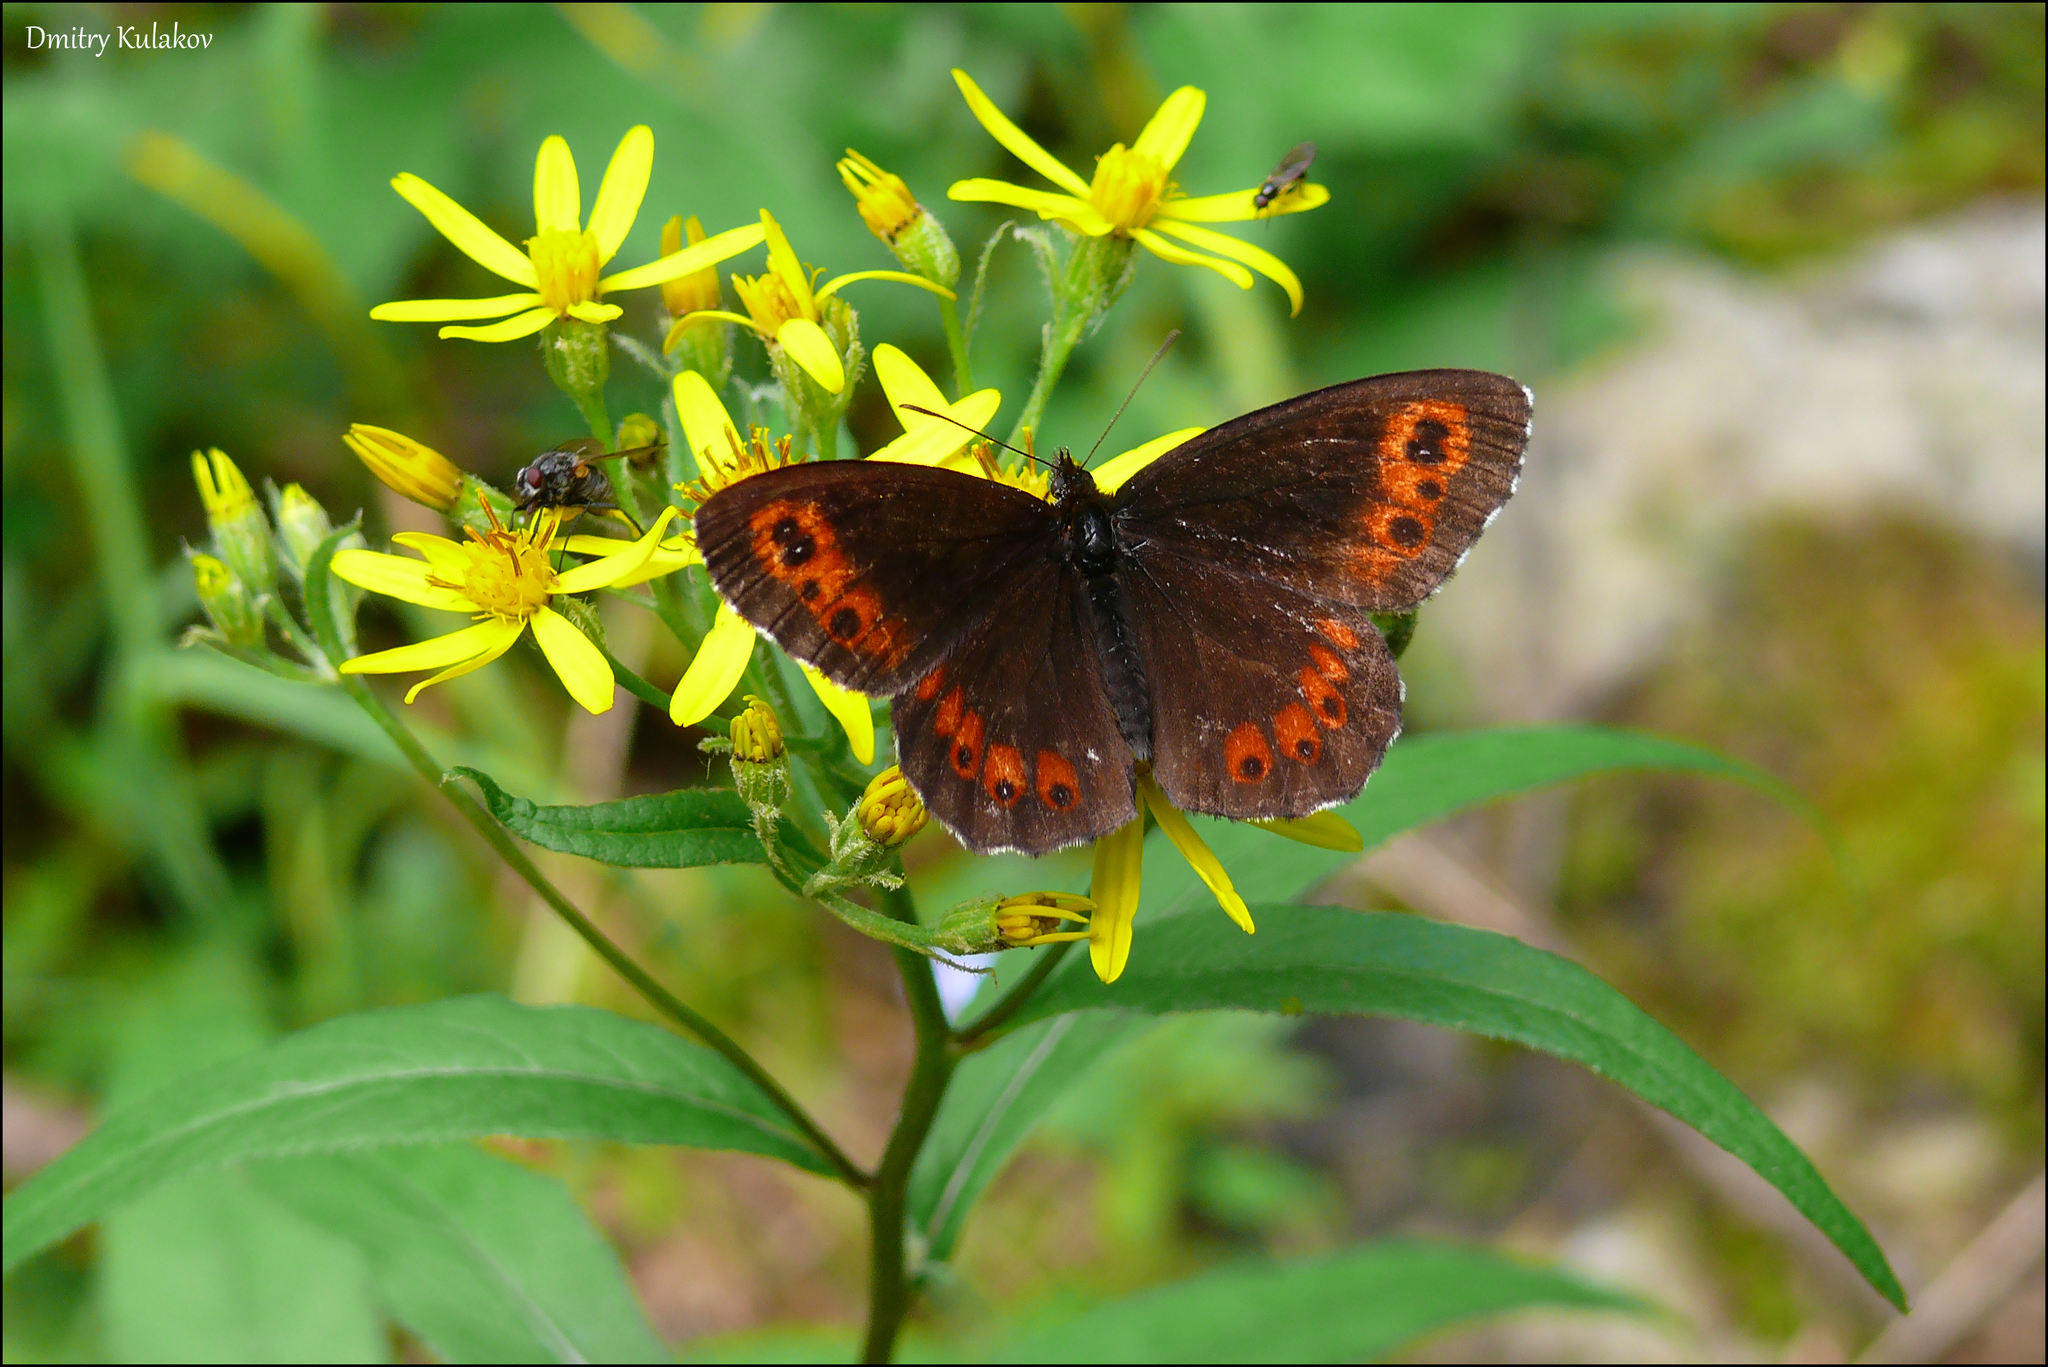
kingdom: Animalia
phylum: Arthropoda
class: Insecta
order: Lepidoptera
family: Nymphalidae
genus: Erebia
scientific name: Erebia ligea
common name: Arran brown
